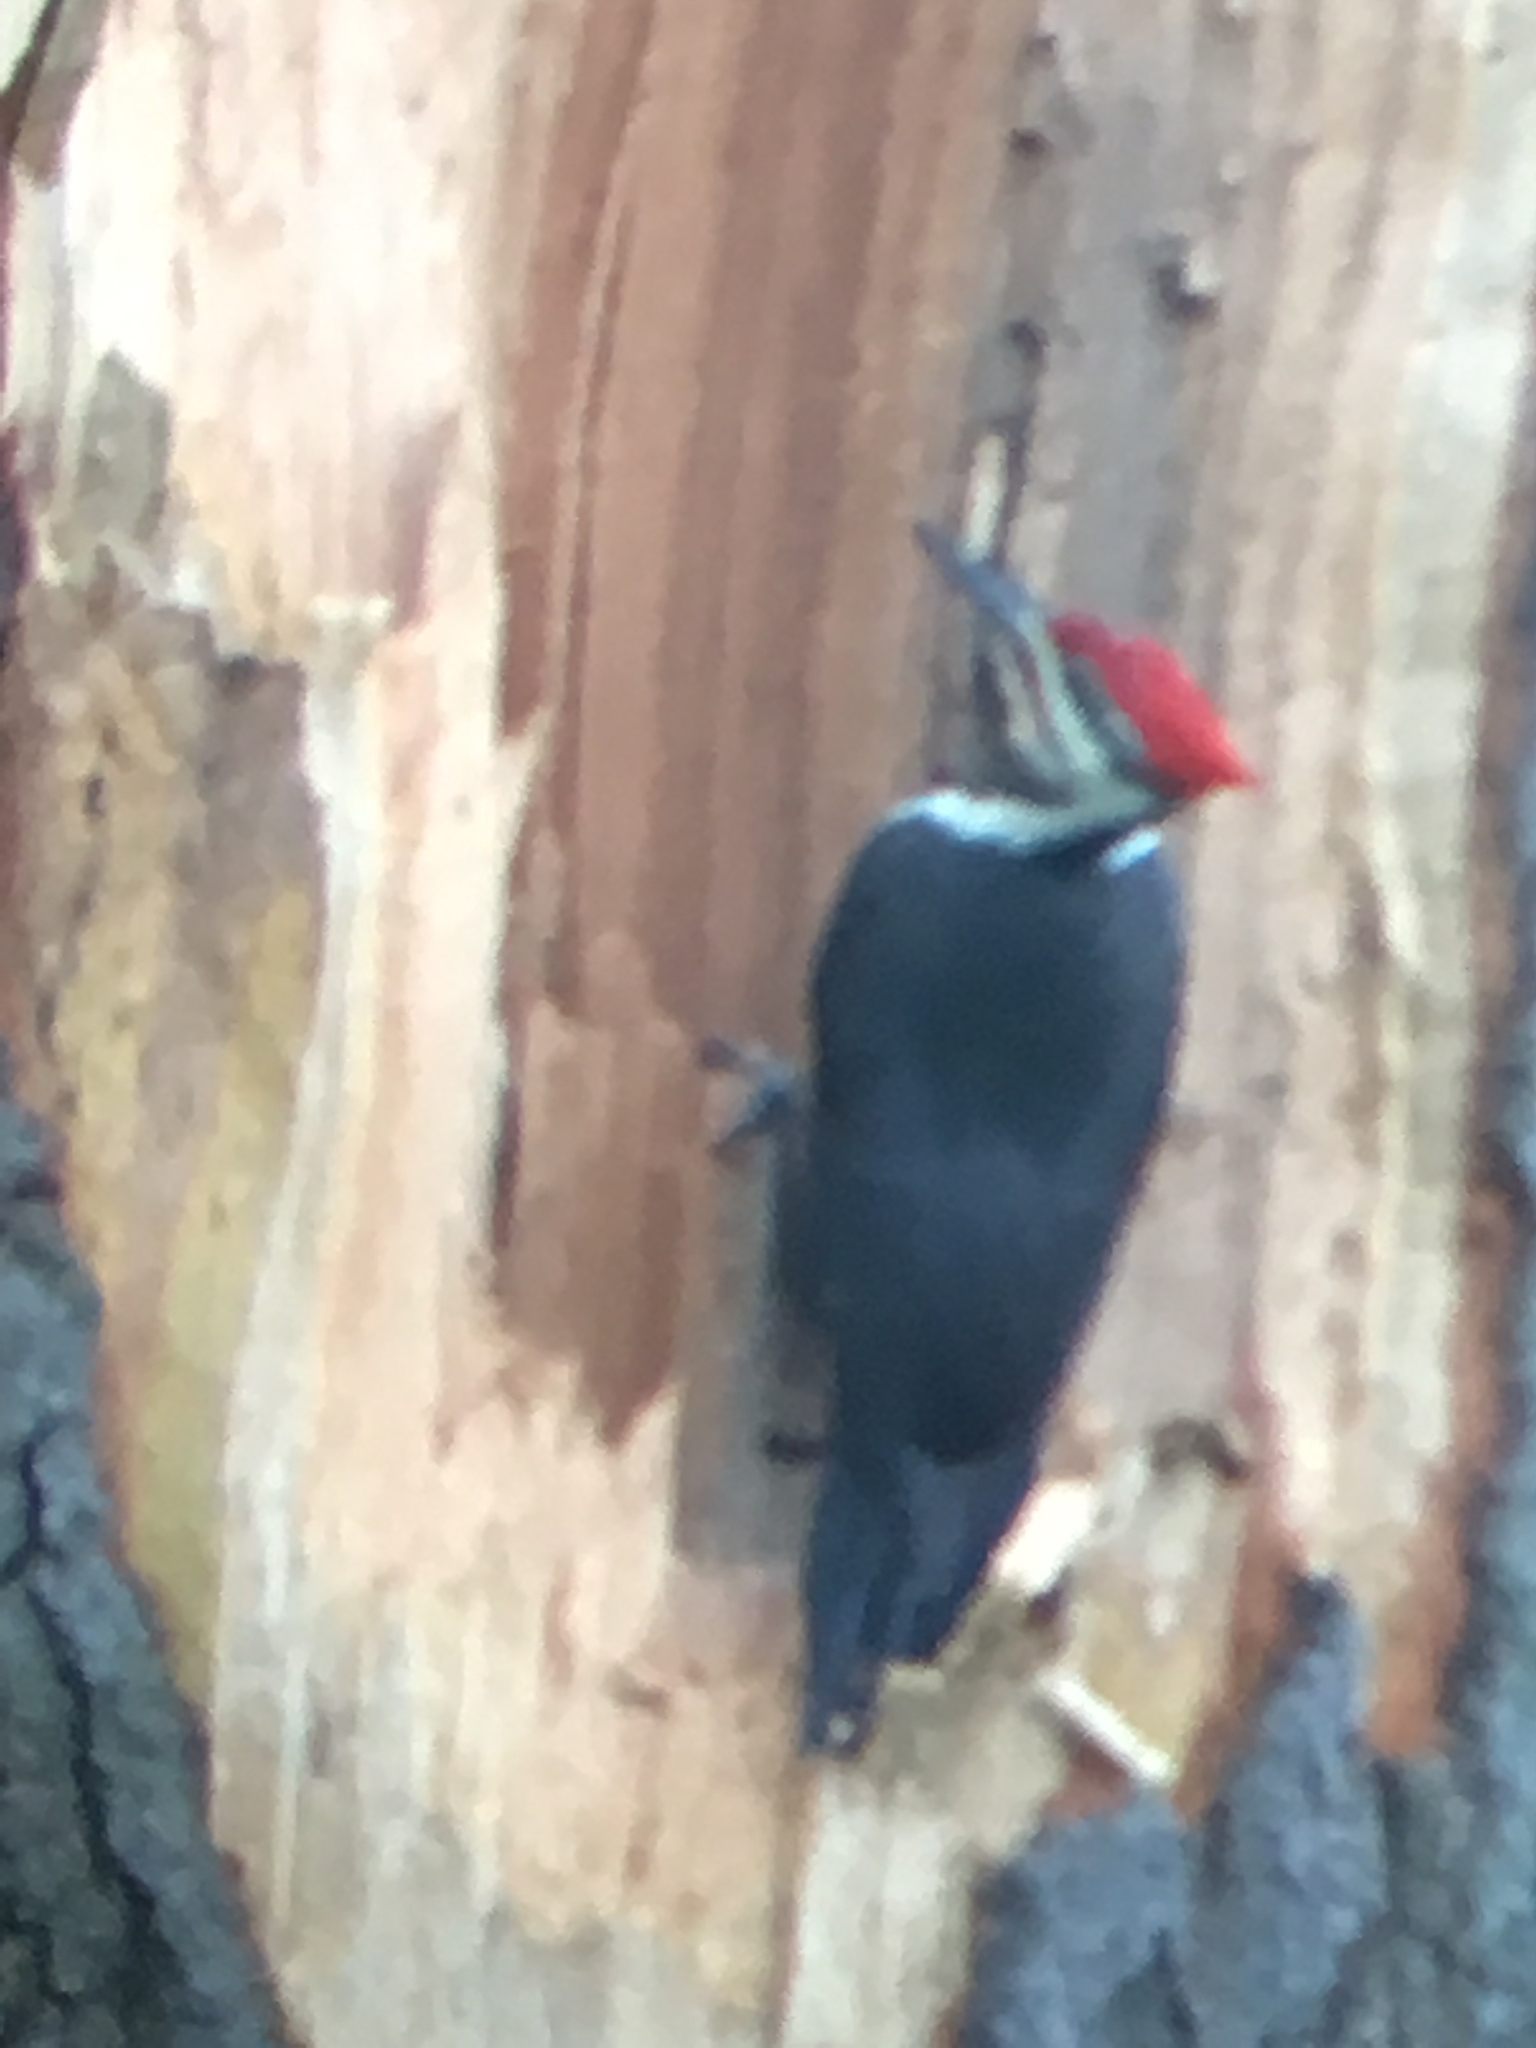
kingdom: Animalia
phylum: Chordata
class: Aves
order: Piciformes
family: Picidae
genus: Dryocopus
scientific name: Dryocopus pileatus
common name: Pileated woodpecker
